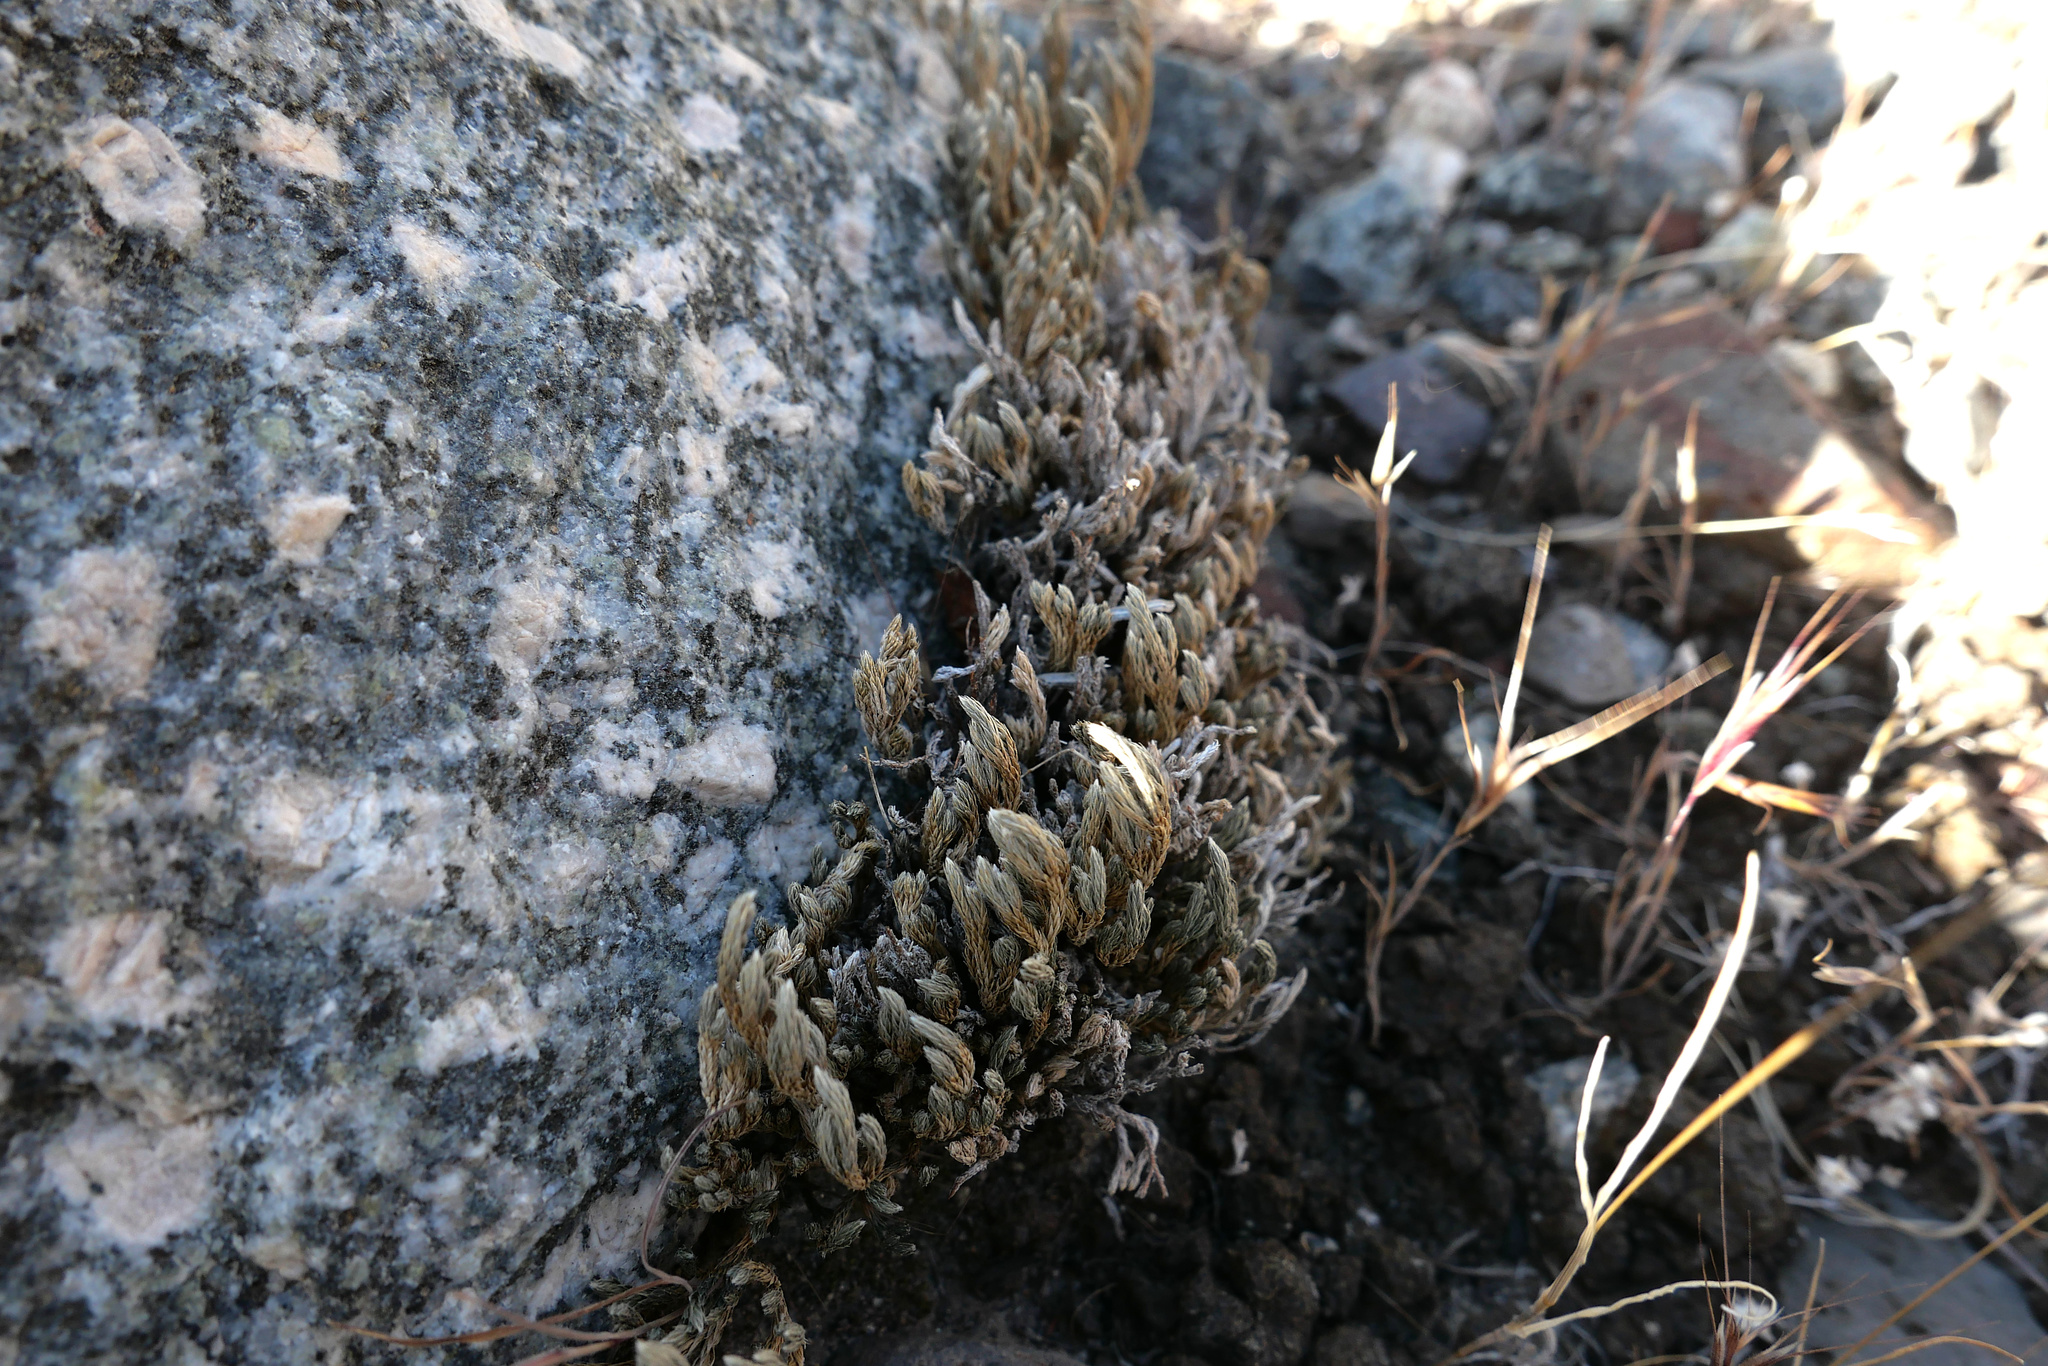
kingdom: Plantae
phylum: Tracheophyta
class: Lycopodiopsida
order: Selaginellales
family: Selaginellaceae
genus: Selaginella
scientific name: Selaginella bigelovii
